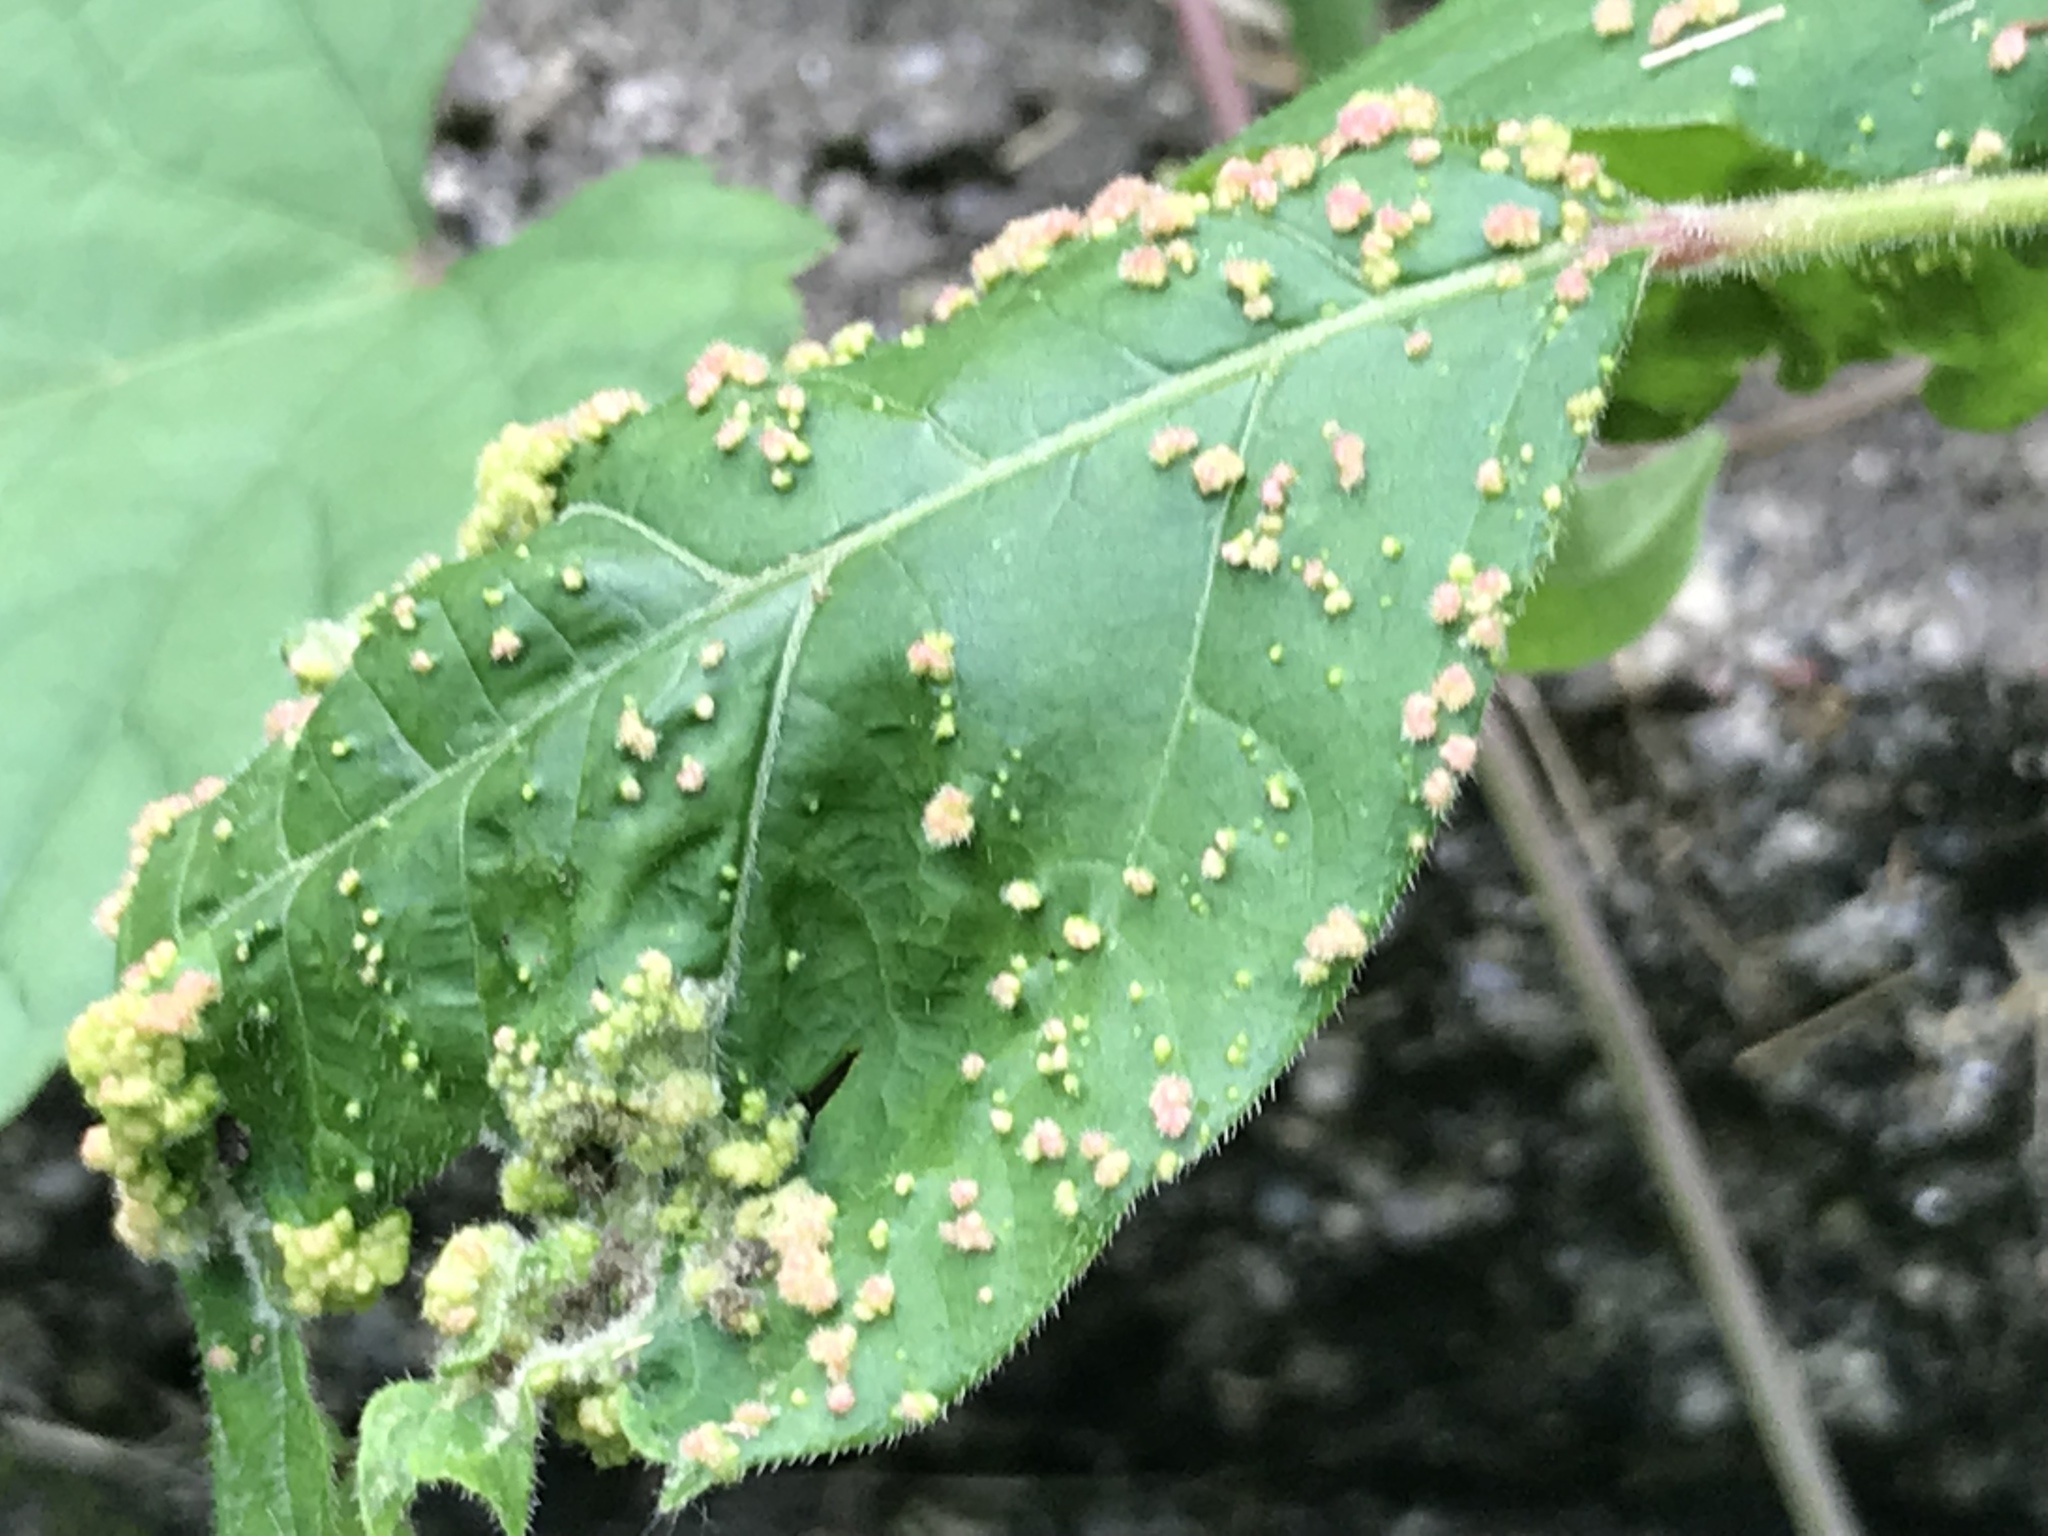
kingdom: Animalia
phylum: Arthropoda
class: Arachnida
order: Trombidiformes
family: Eriophyidae
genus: Aculops
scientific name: Aculops
